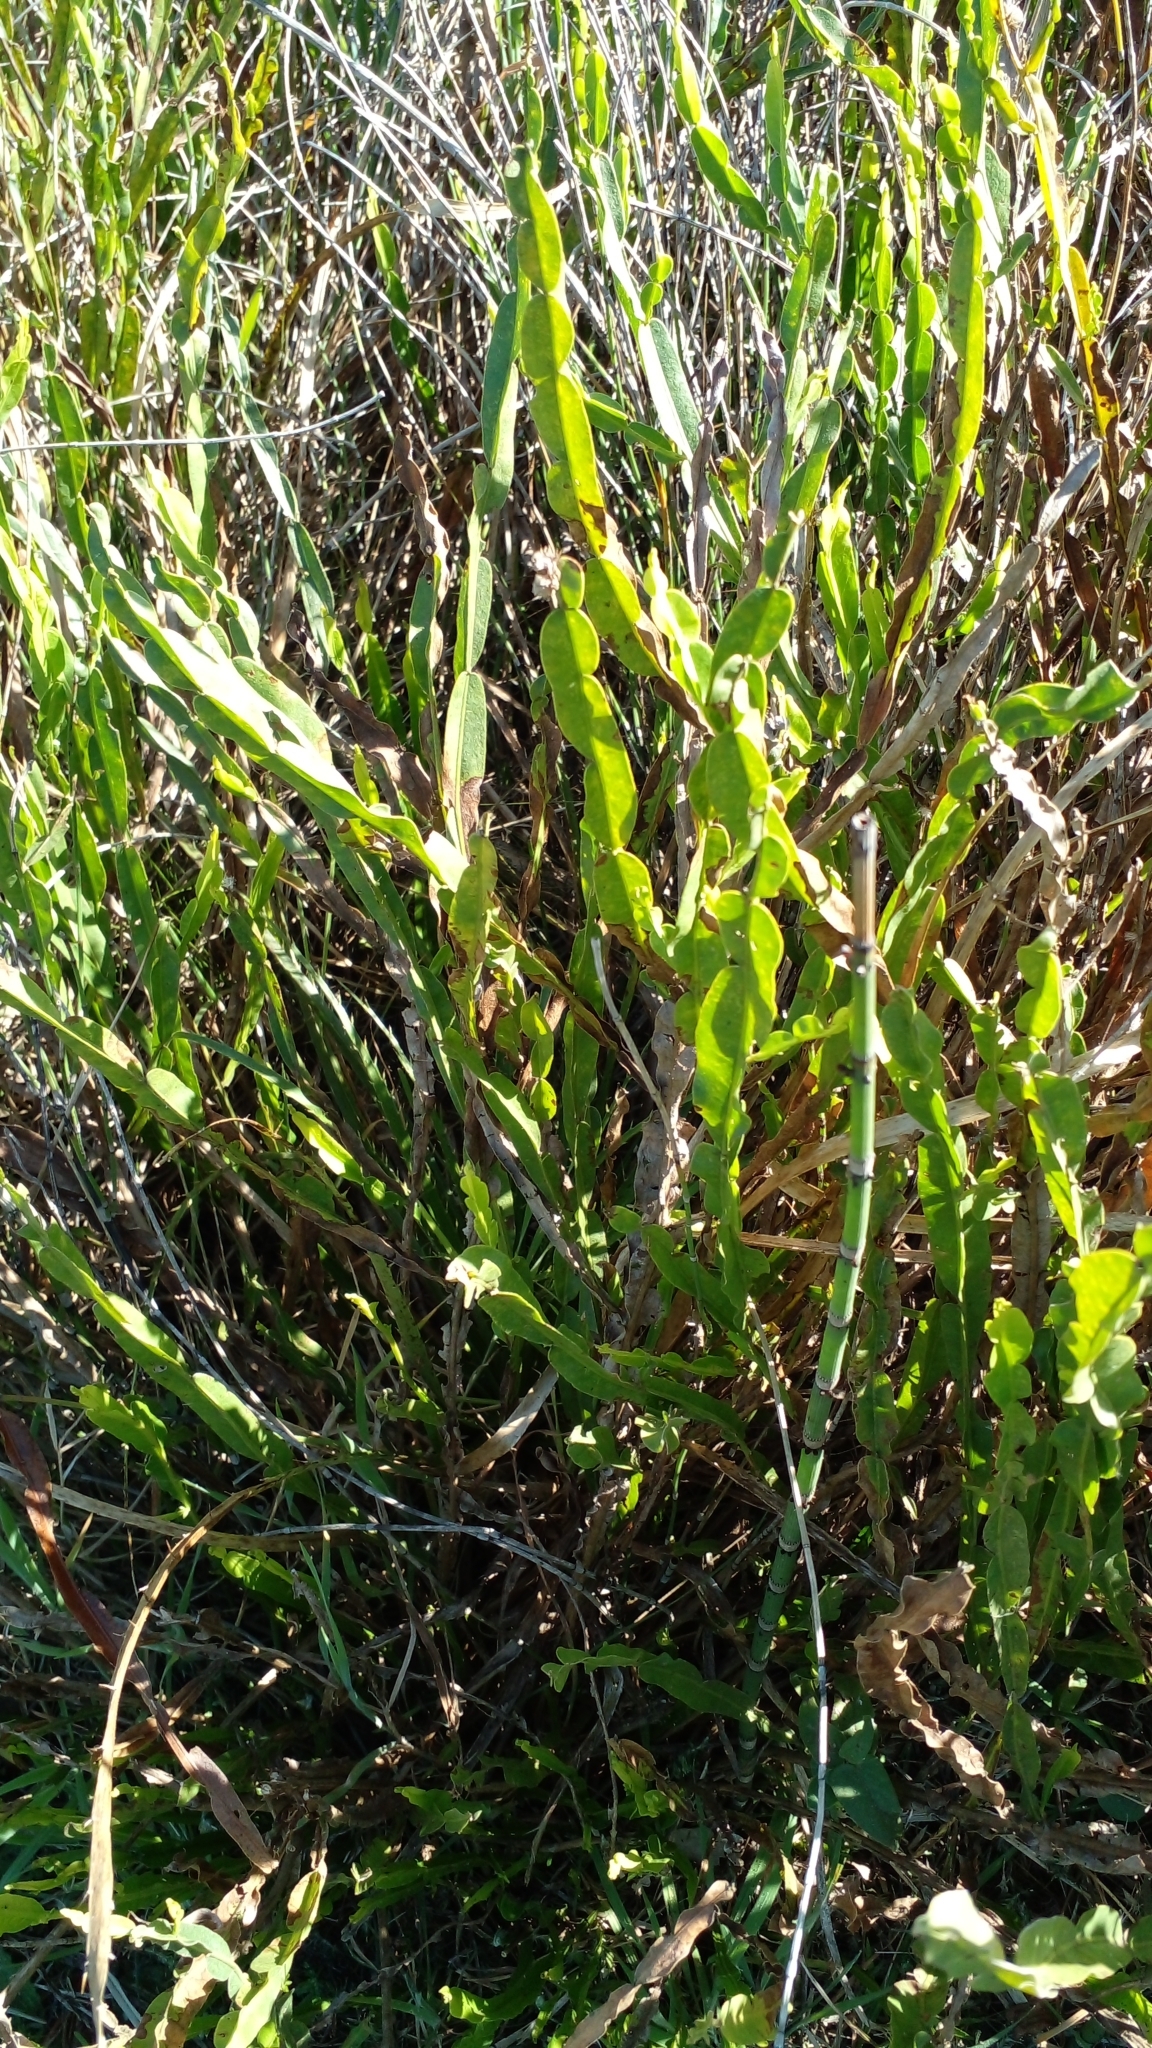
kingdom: Plantae
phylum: Tracheophyta
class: Magnoliopsida
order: Asterales
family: Asteraceae
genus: Baccharis
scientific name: Baccharis trimera
